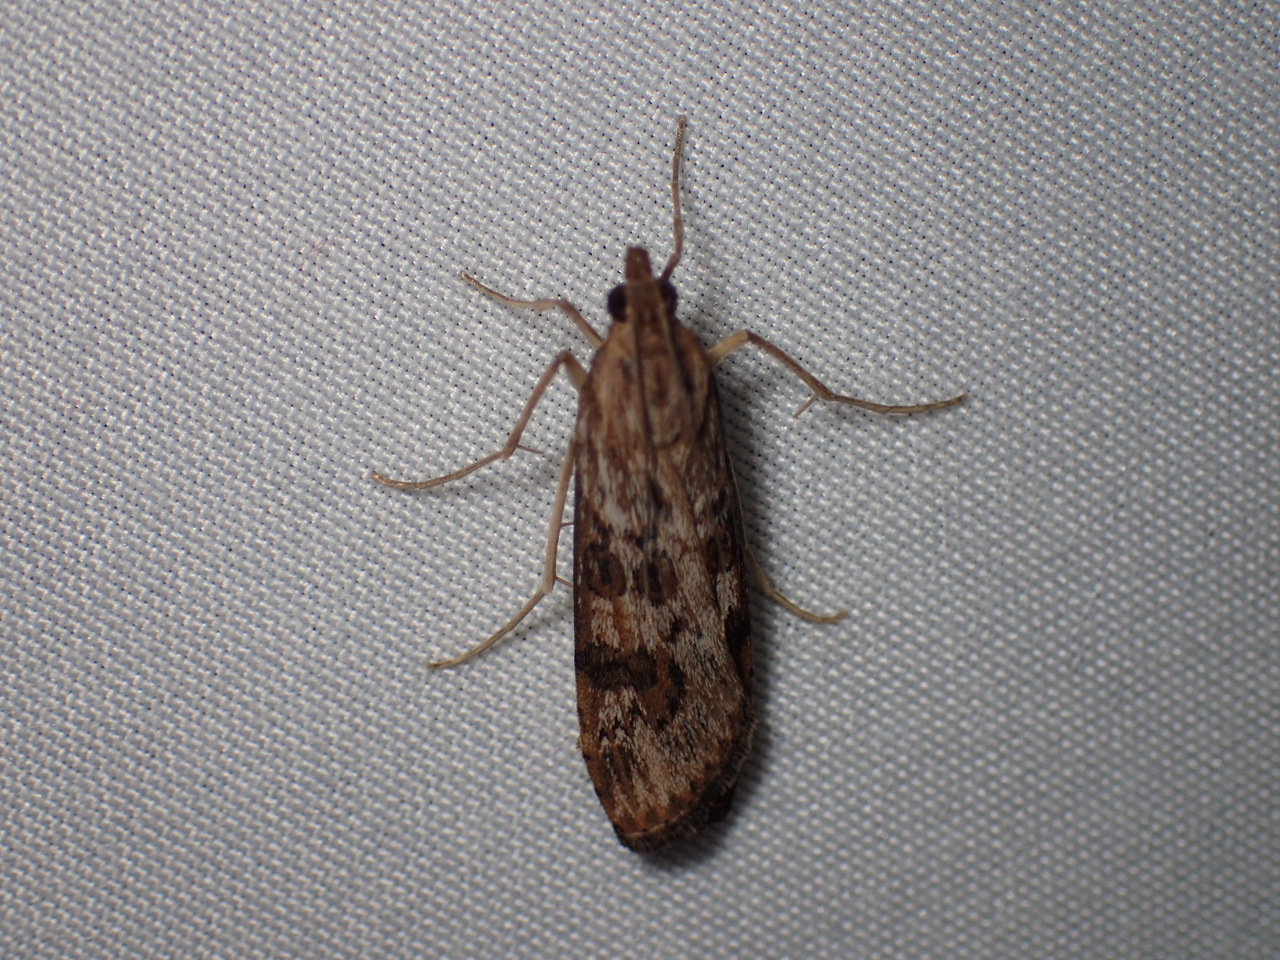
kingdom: Animalia
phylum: Arthropoda
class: Insecta
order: Lepidoptera
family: Crambidae
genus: Nomophila
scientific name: Nomophila nearctica
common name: American rush veneer
